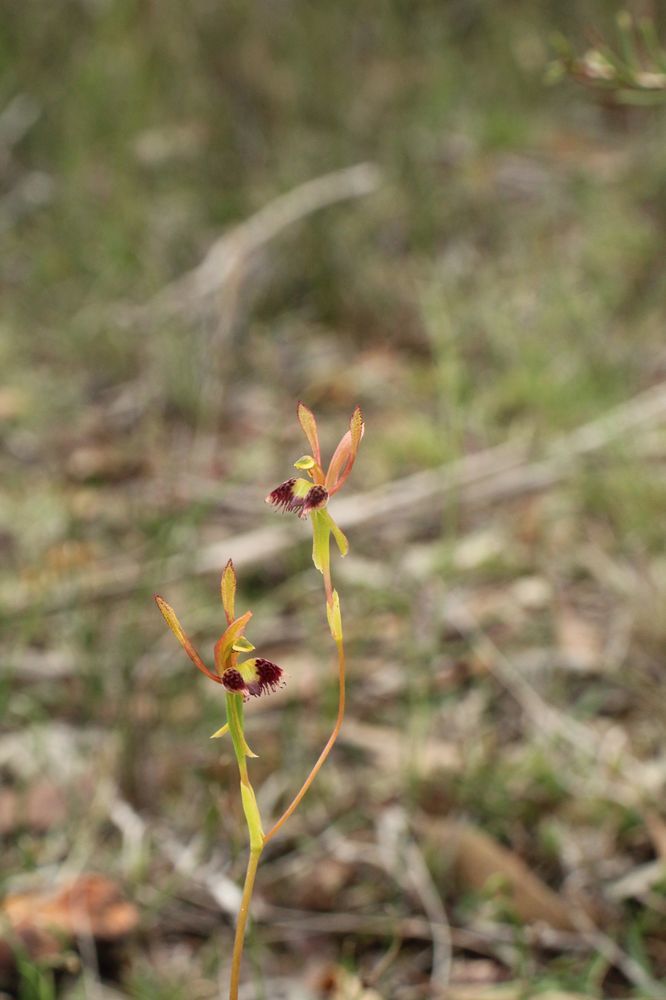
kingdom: Plantae
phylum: Tracheophyta
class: Liliopsida
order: Asparagales
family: Orchidaceae
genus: Leporella
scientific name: Leporella fimbriata
